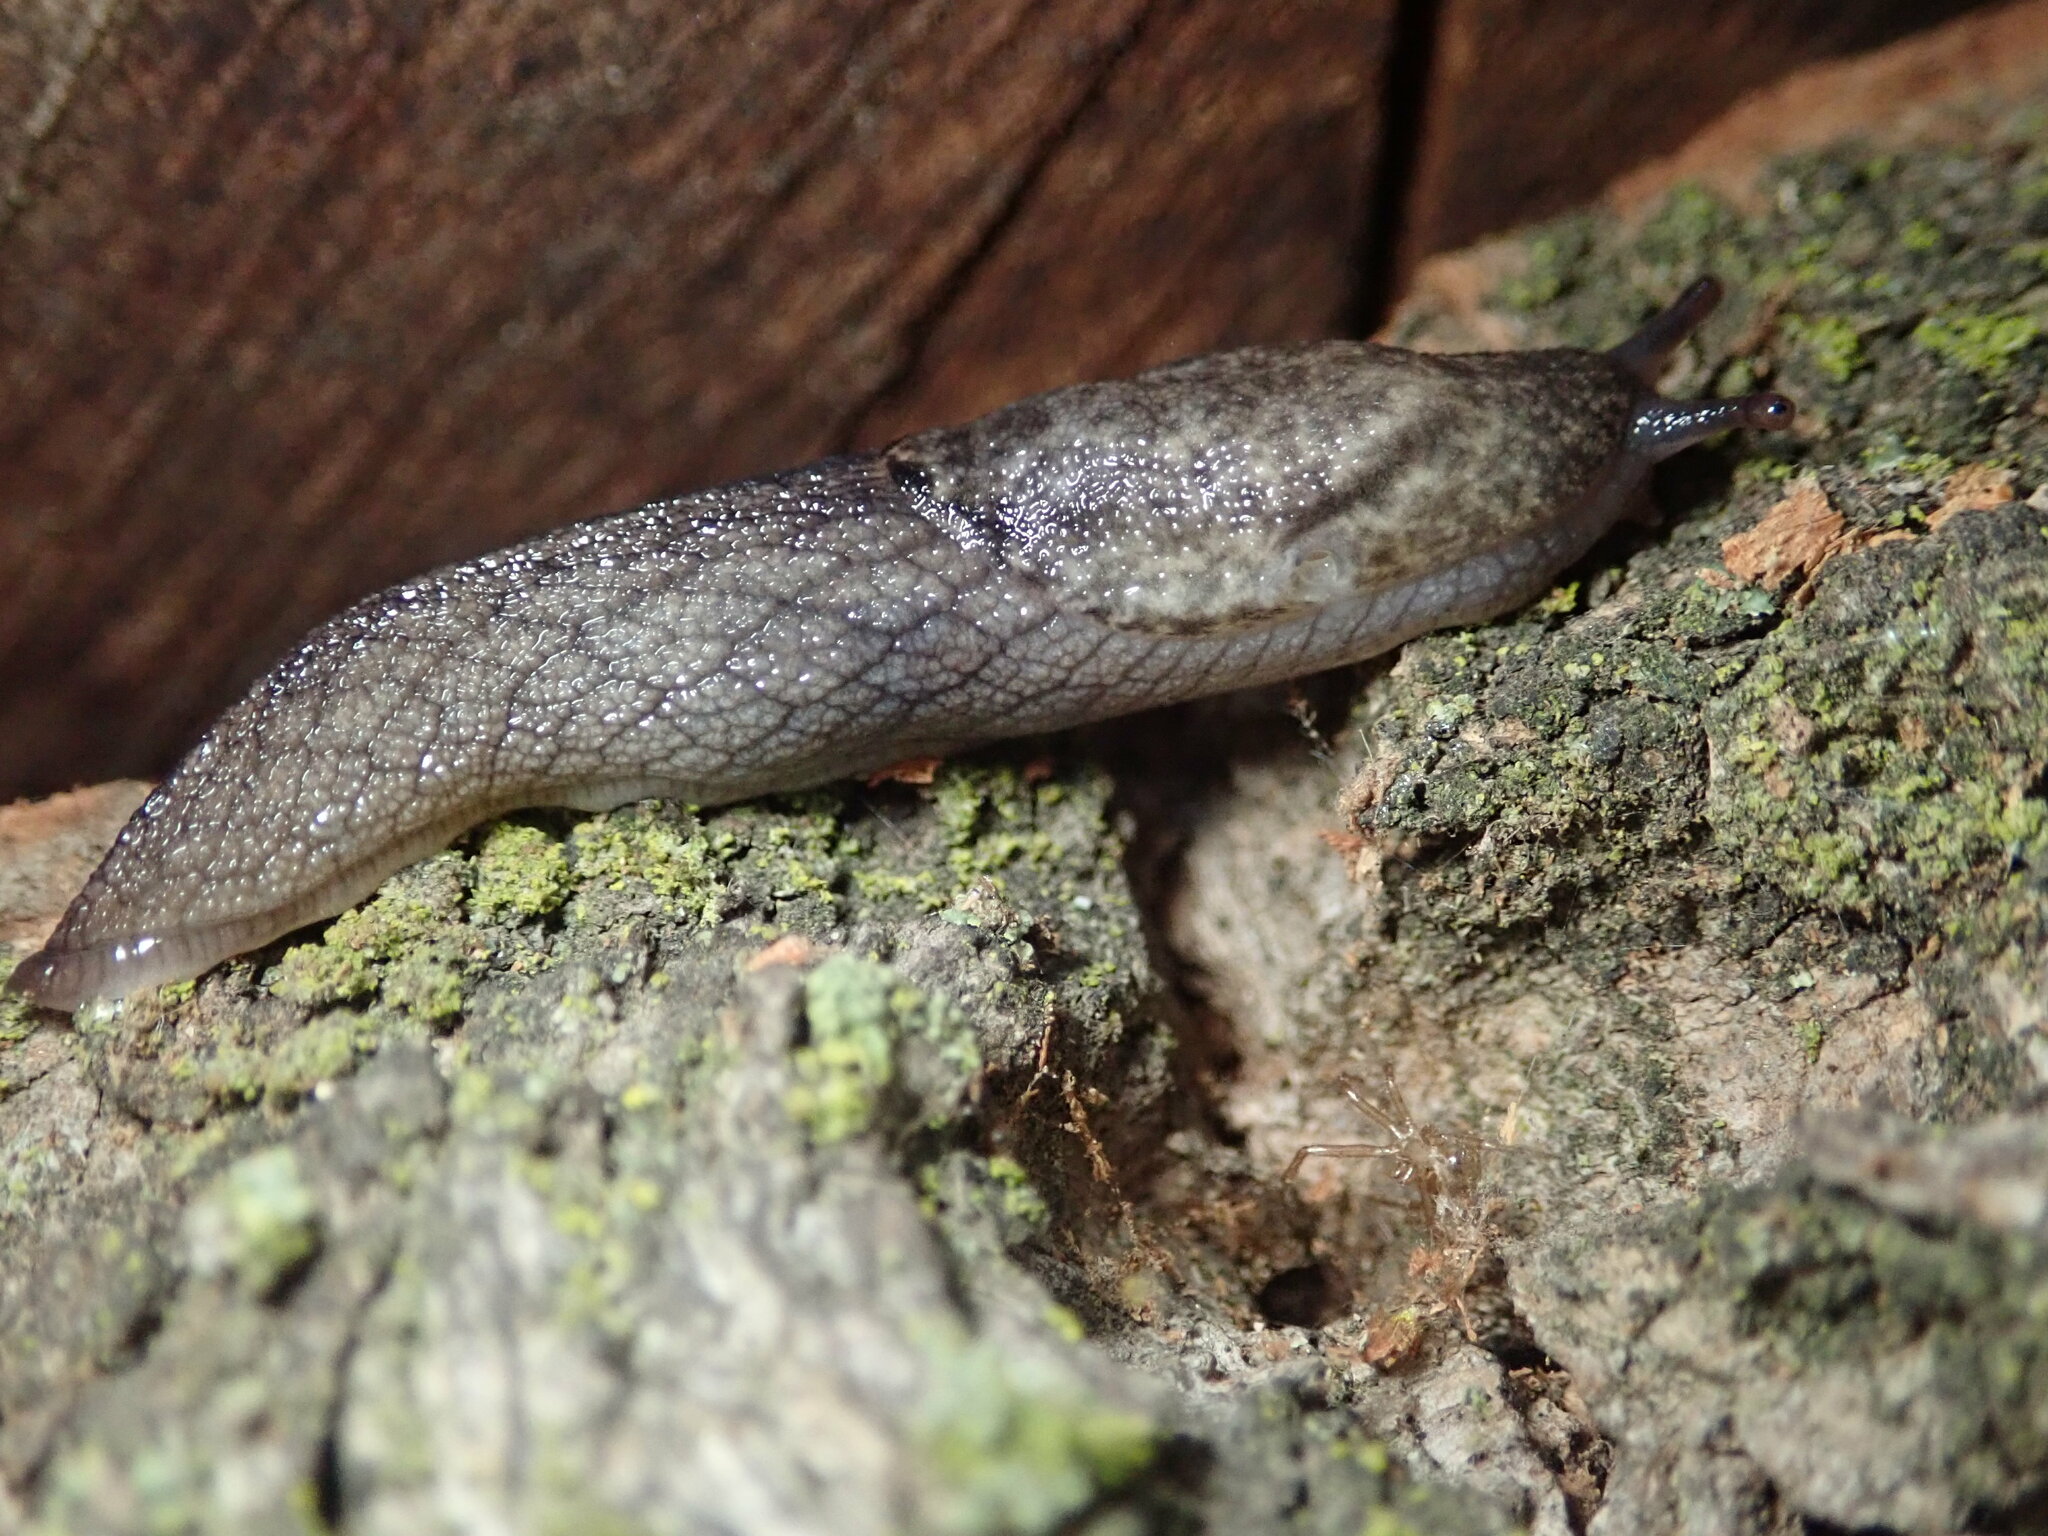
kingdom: Animalia
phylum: Mollusca
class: Gastropoda
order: Stylommatophora
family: Ariolimacidae
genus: Prophysaon
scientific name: Prophysaon andersonii
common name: Reticulate taildropper
